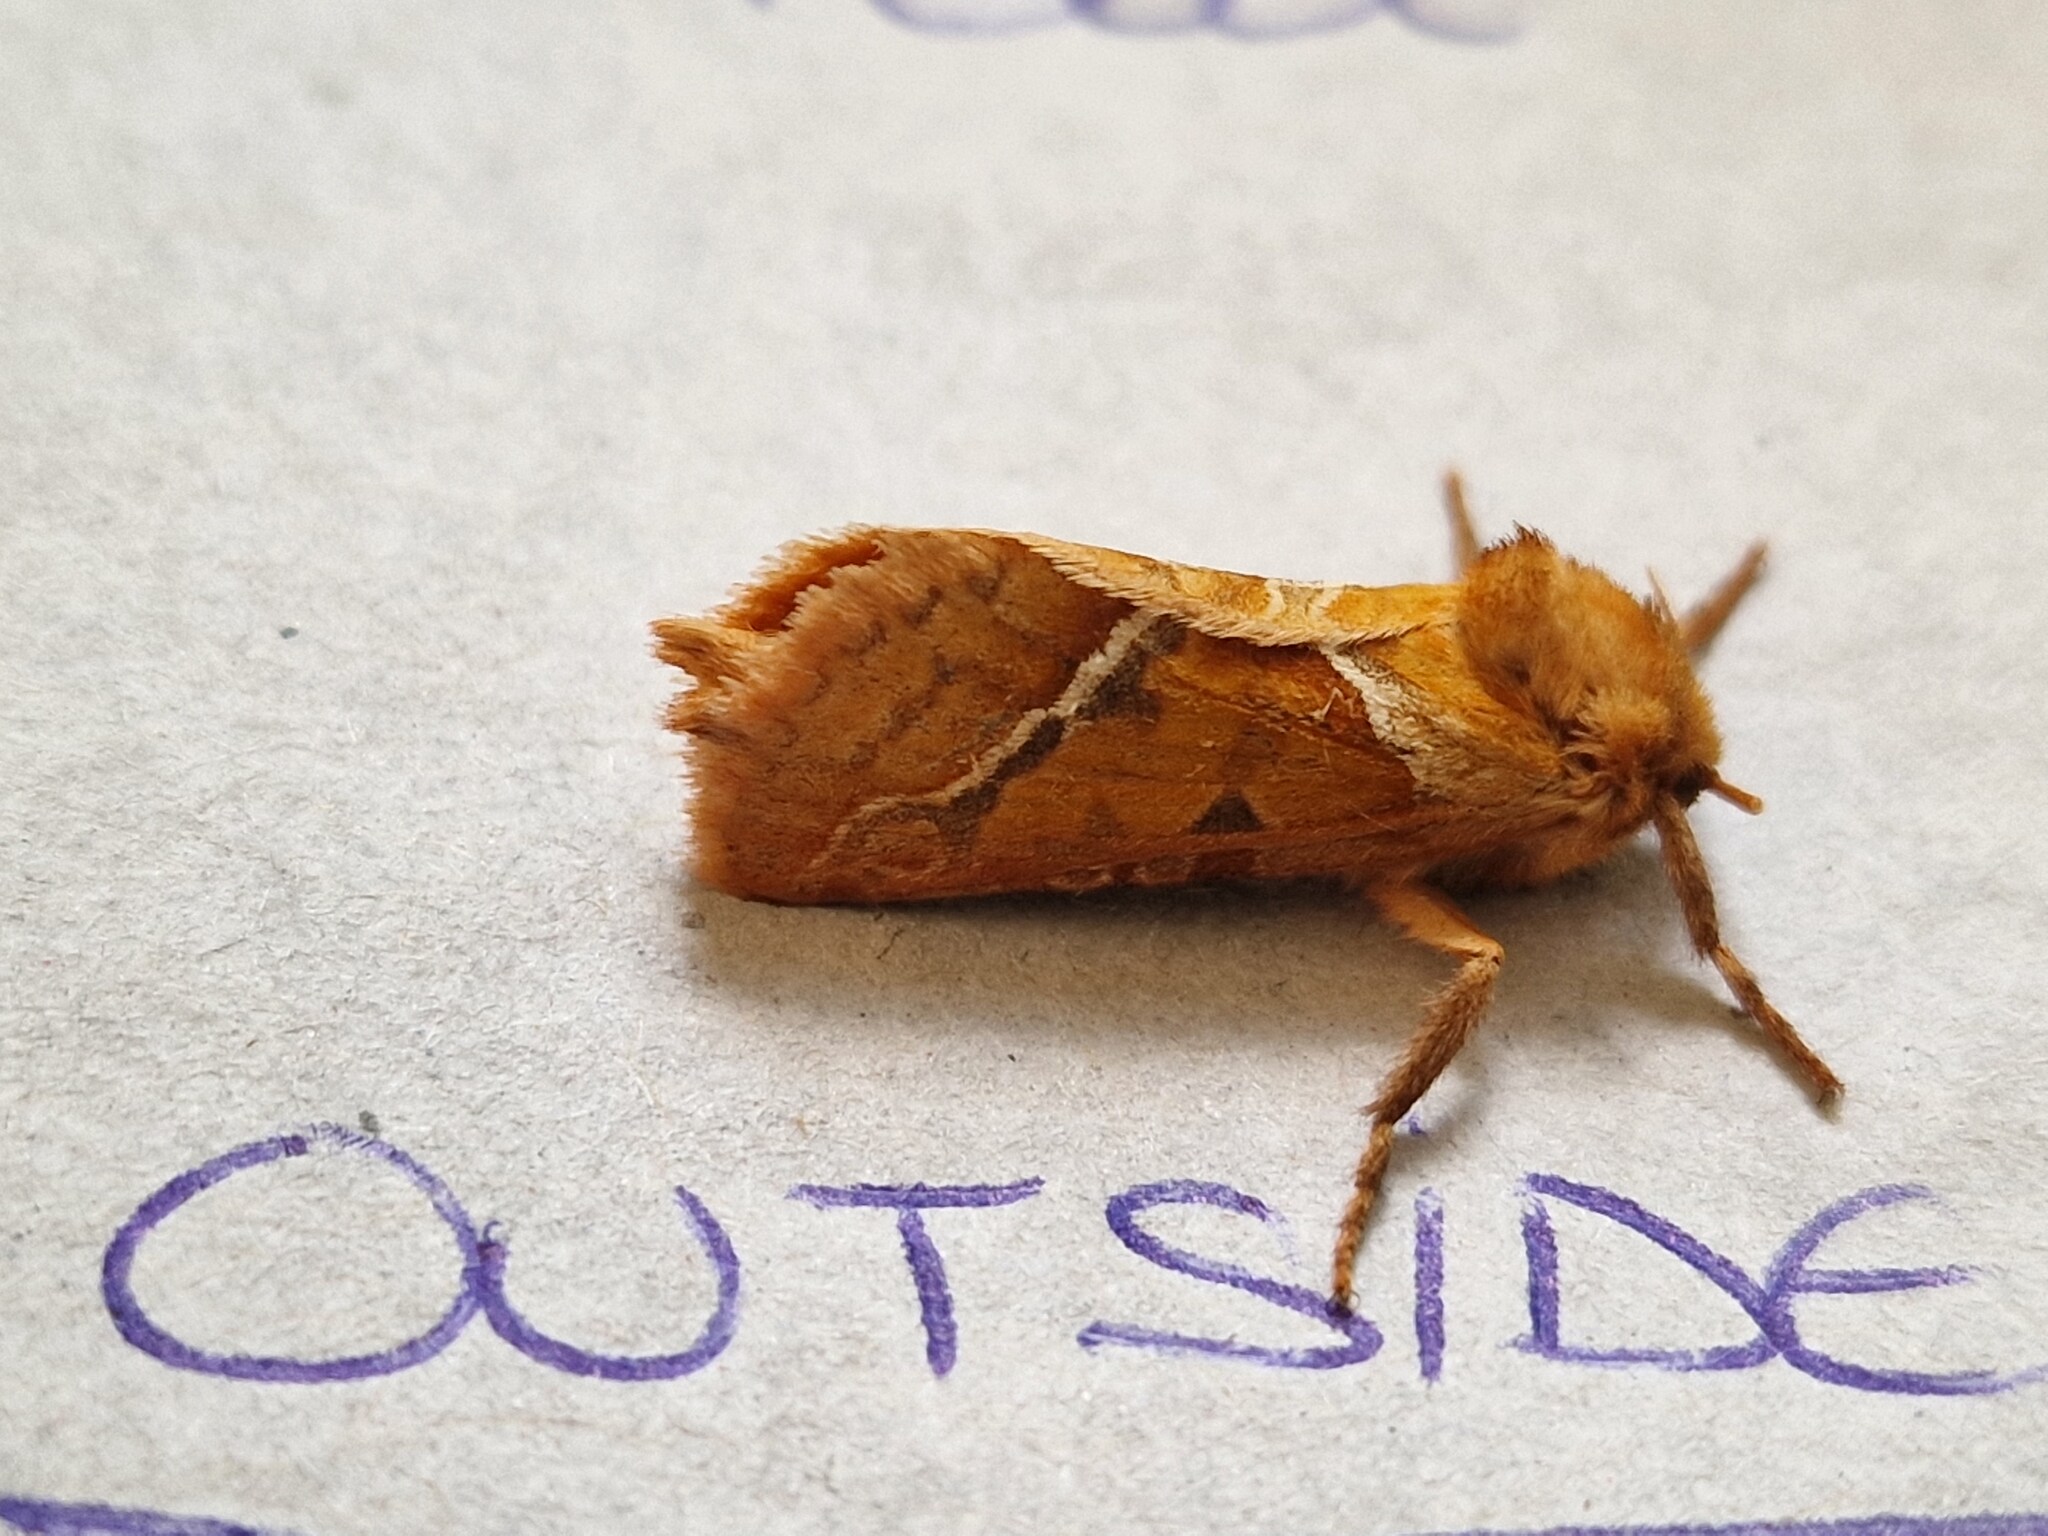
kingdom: Animalia
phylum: Arthropoda
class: Insecta
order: Lepidoptera
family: Hepialidae
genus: Triodia
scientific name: Triodia sylvina
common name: Orange swift
